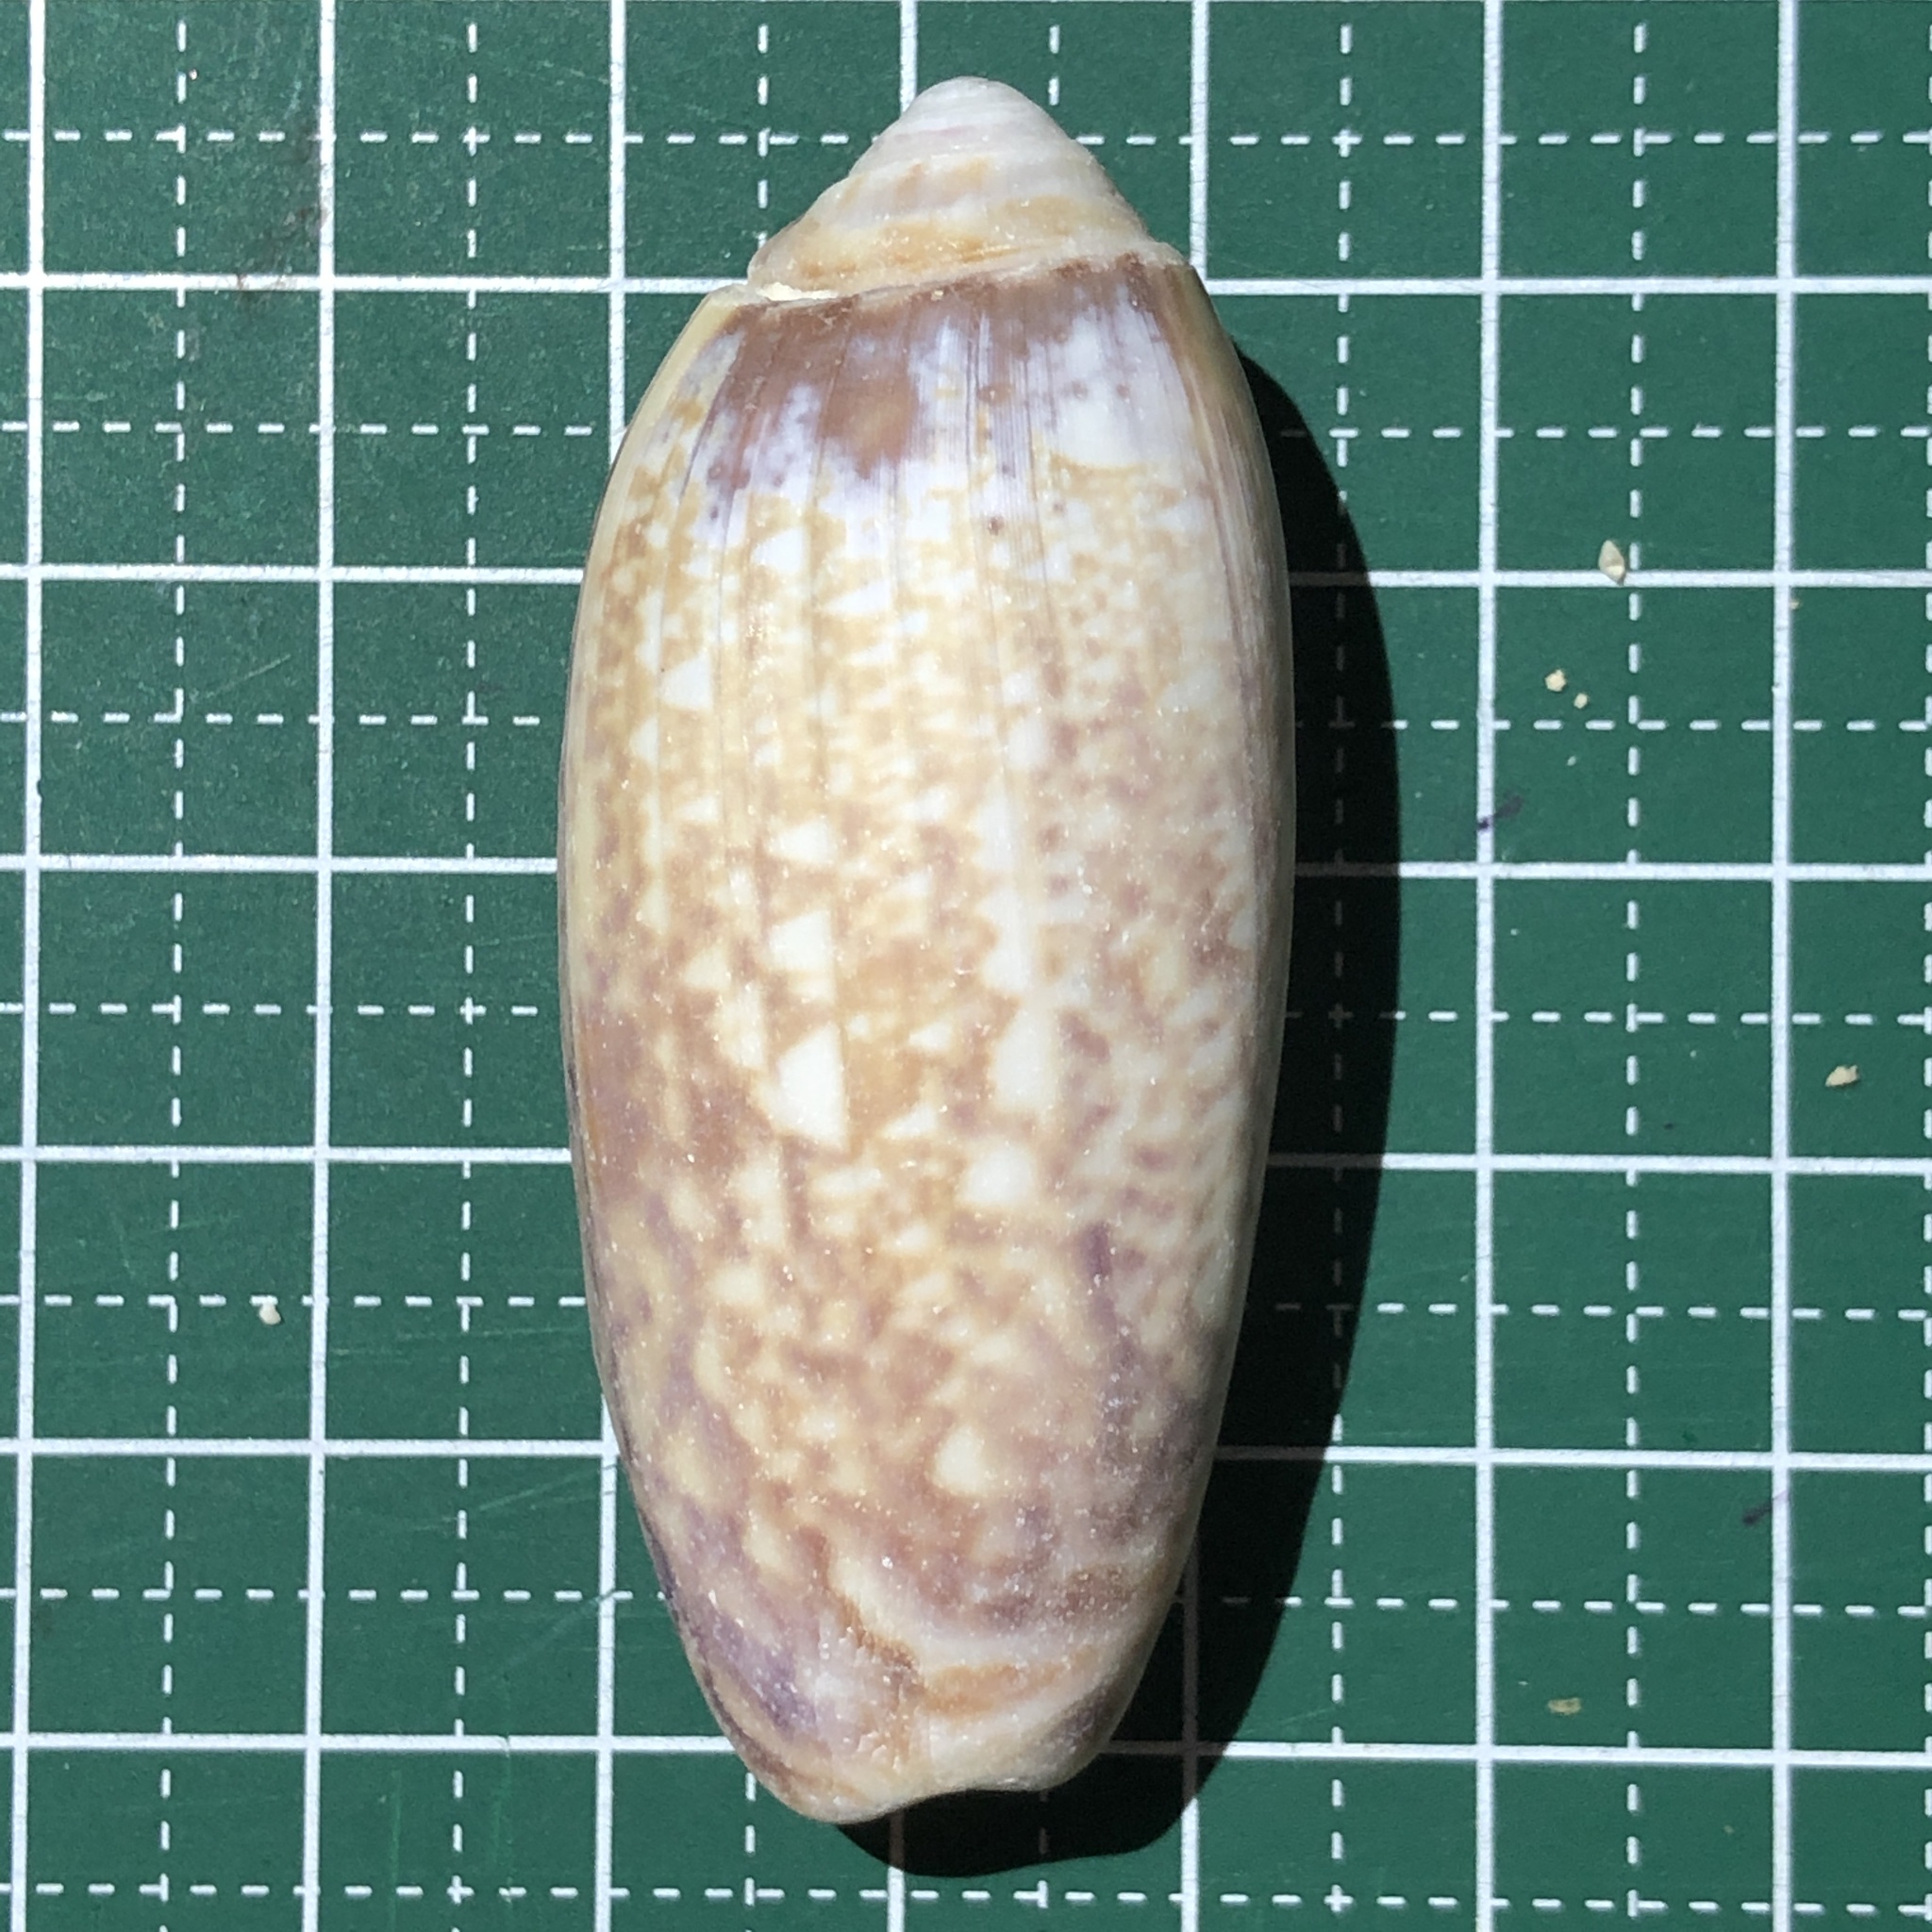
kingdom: Animalia
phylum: Mollusca
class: Gastropoda
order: Neogastropoda
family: Olividae
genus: Oliva
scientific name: Oliva miniacea
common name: Pacific common olive
